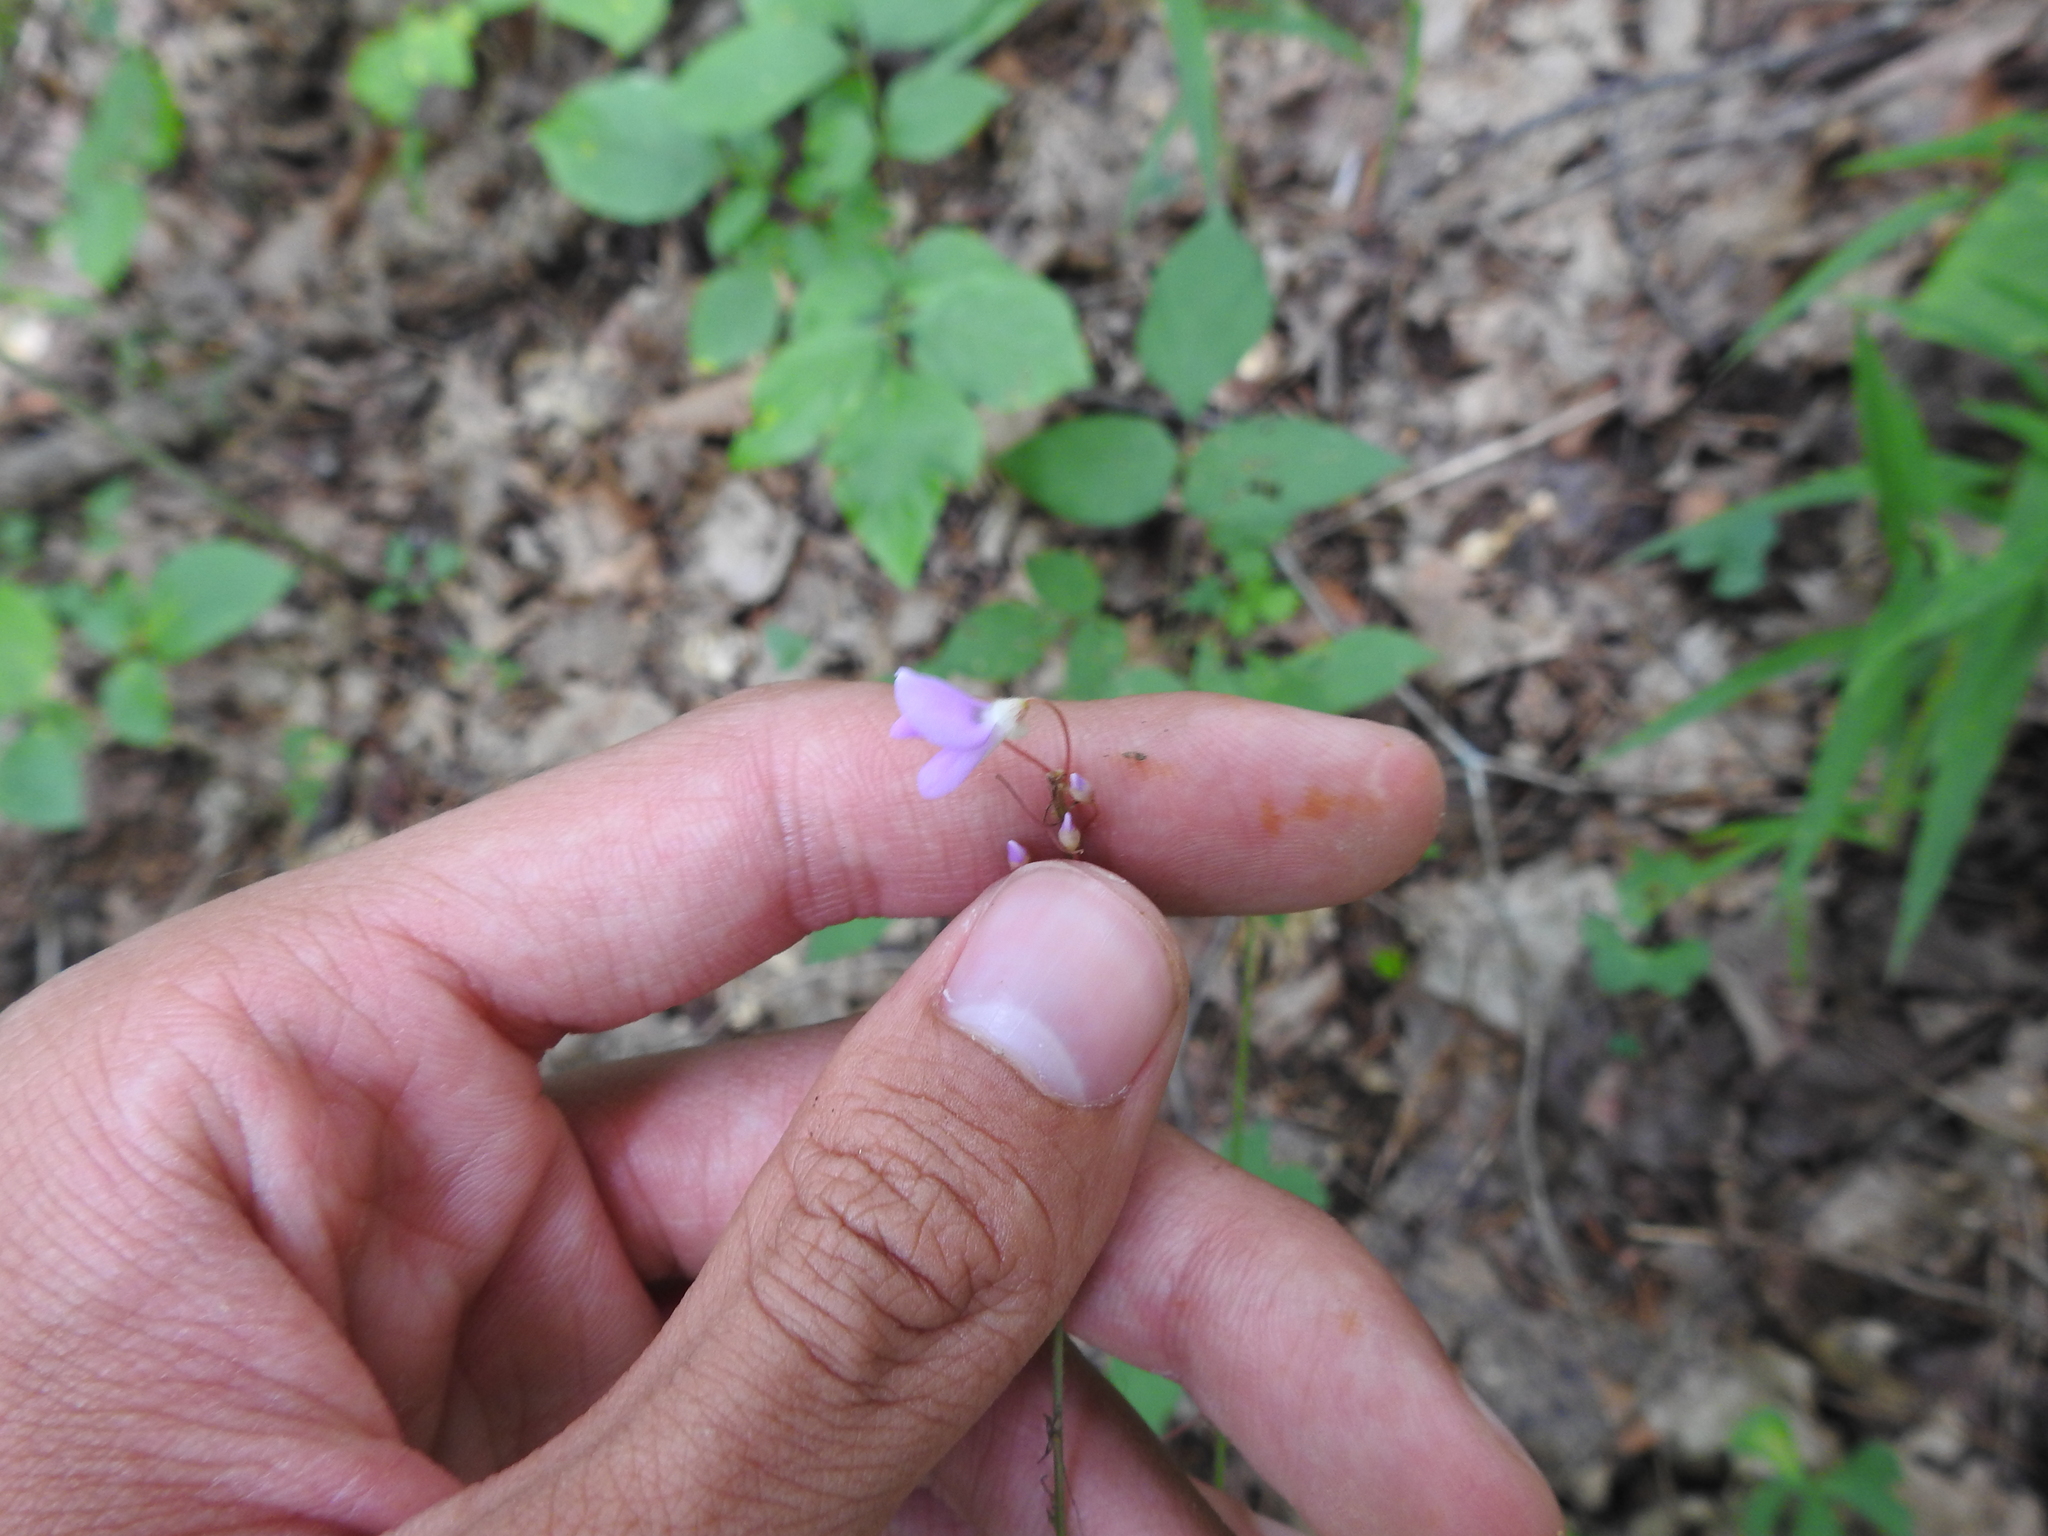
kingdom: Plantae
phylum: Tracheophyta
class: Magnoliopsida
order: Fabales
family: Fabaceae
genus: Hylodesmum
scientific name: Hylodesmum nudiflorum
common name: Bare-stemmed tick-trefoil
